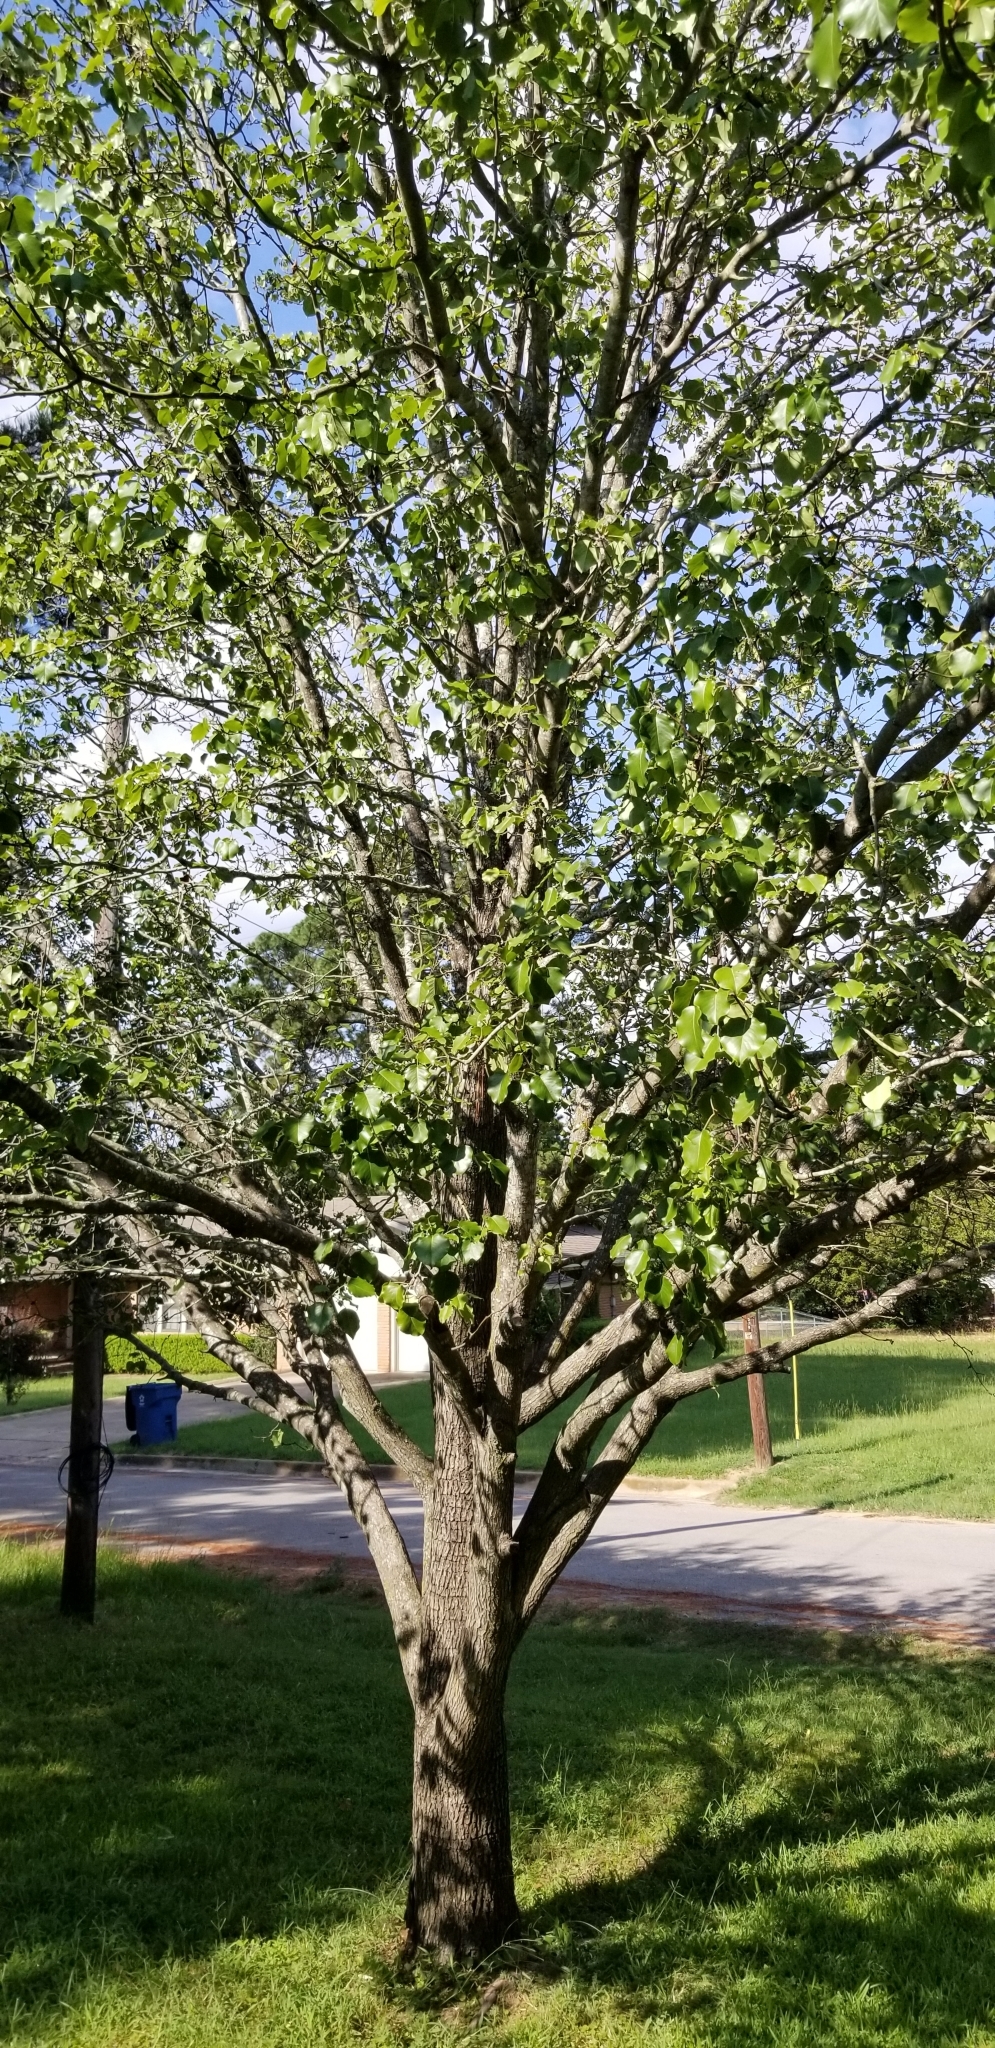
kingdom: Plantae
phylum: Tracheophyta
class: Magnoliopsida
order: Rosales
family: Rosaceae
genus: Pyrus
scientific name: Pyrus calleryana
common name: Callery pear
